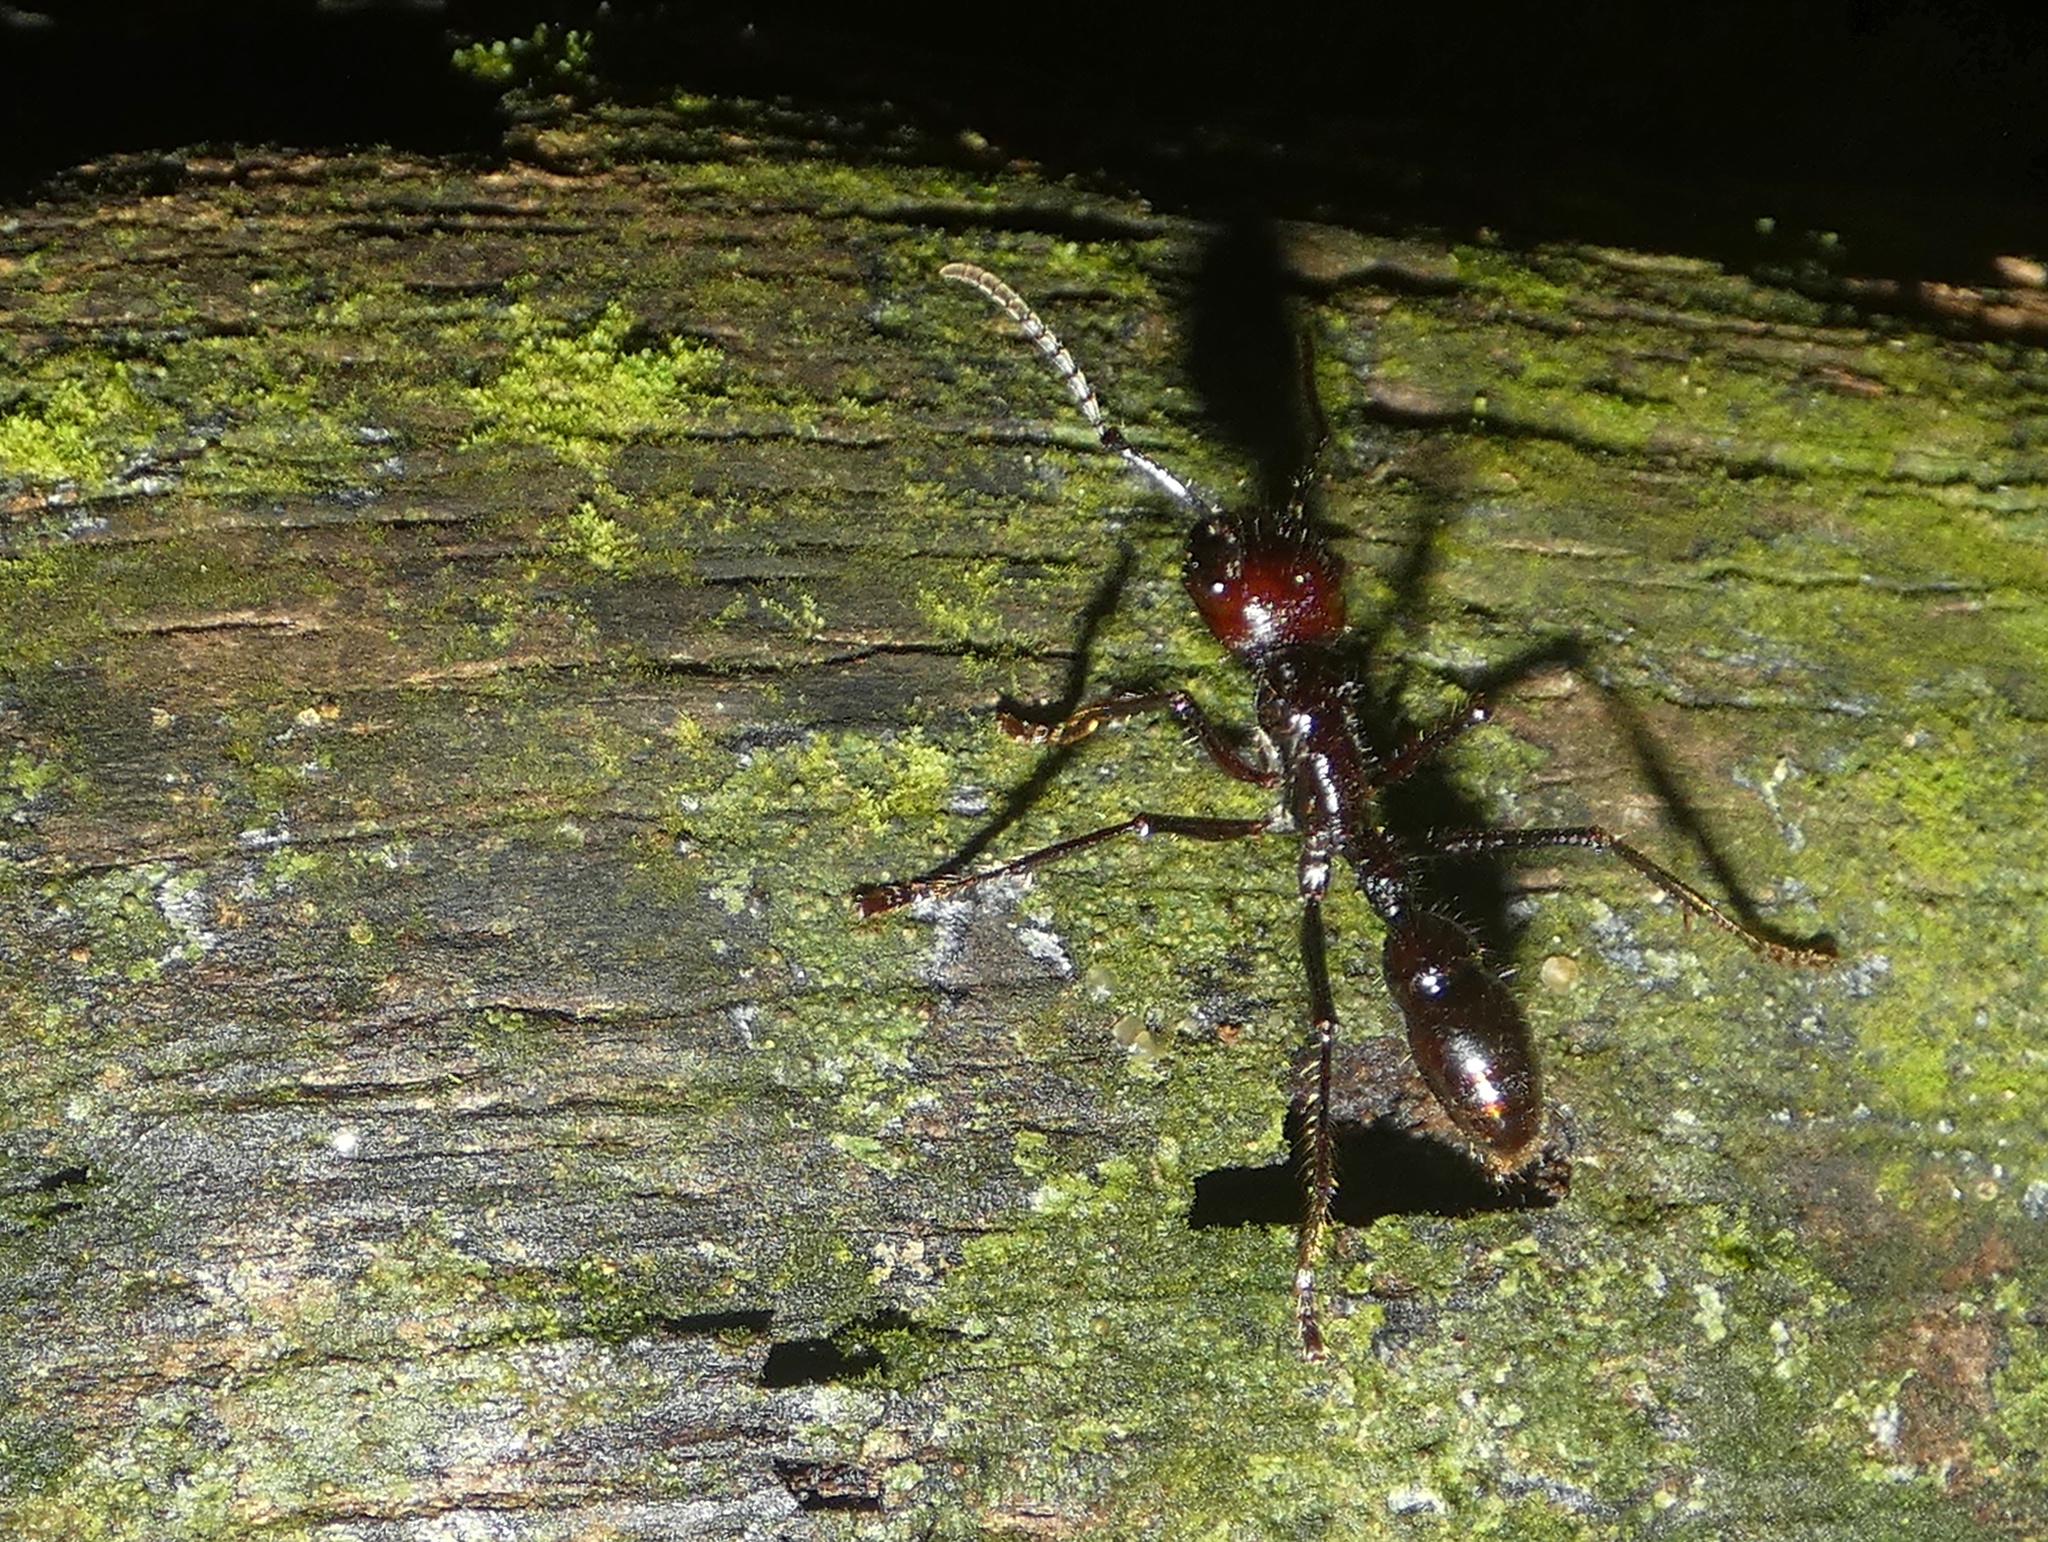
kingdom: Animalia
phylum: Arthropoda
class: Insecta
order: Hymenoptera
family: Formicidae
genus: Paraponera
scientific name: Paraponera clavata
